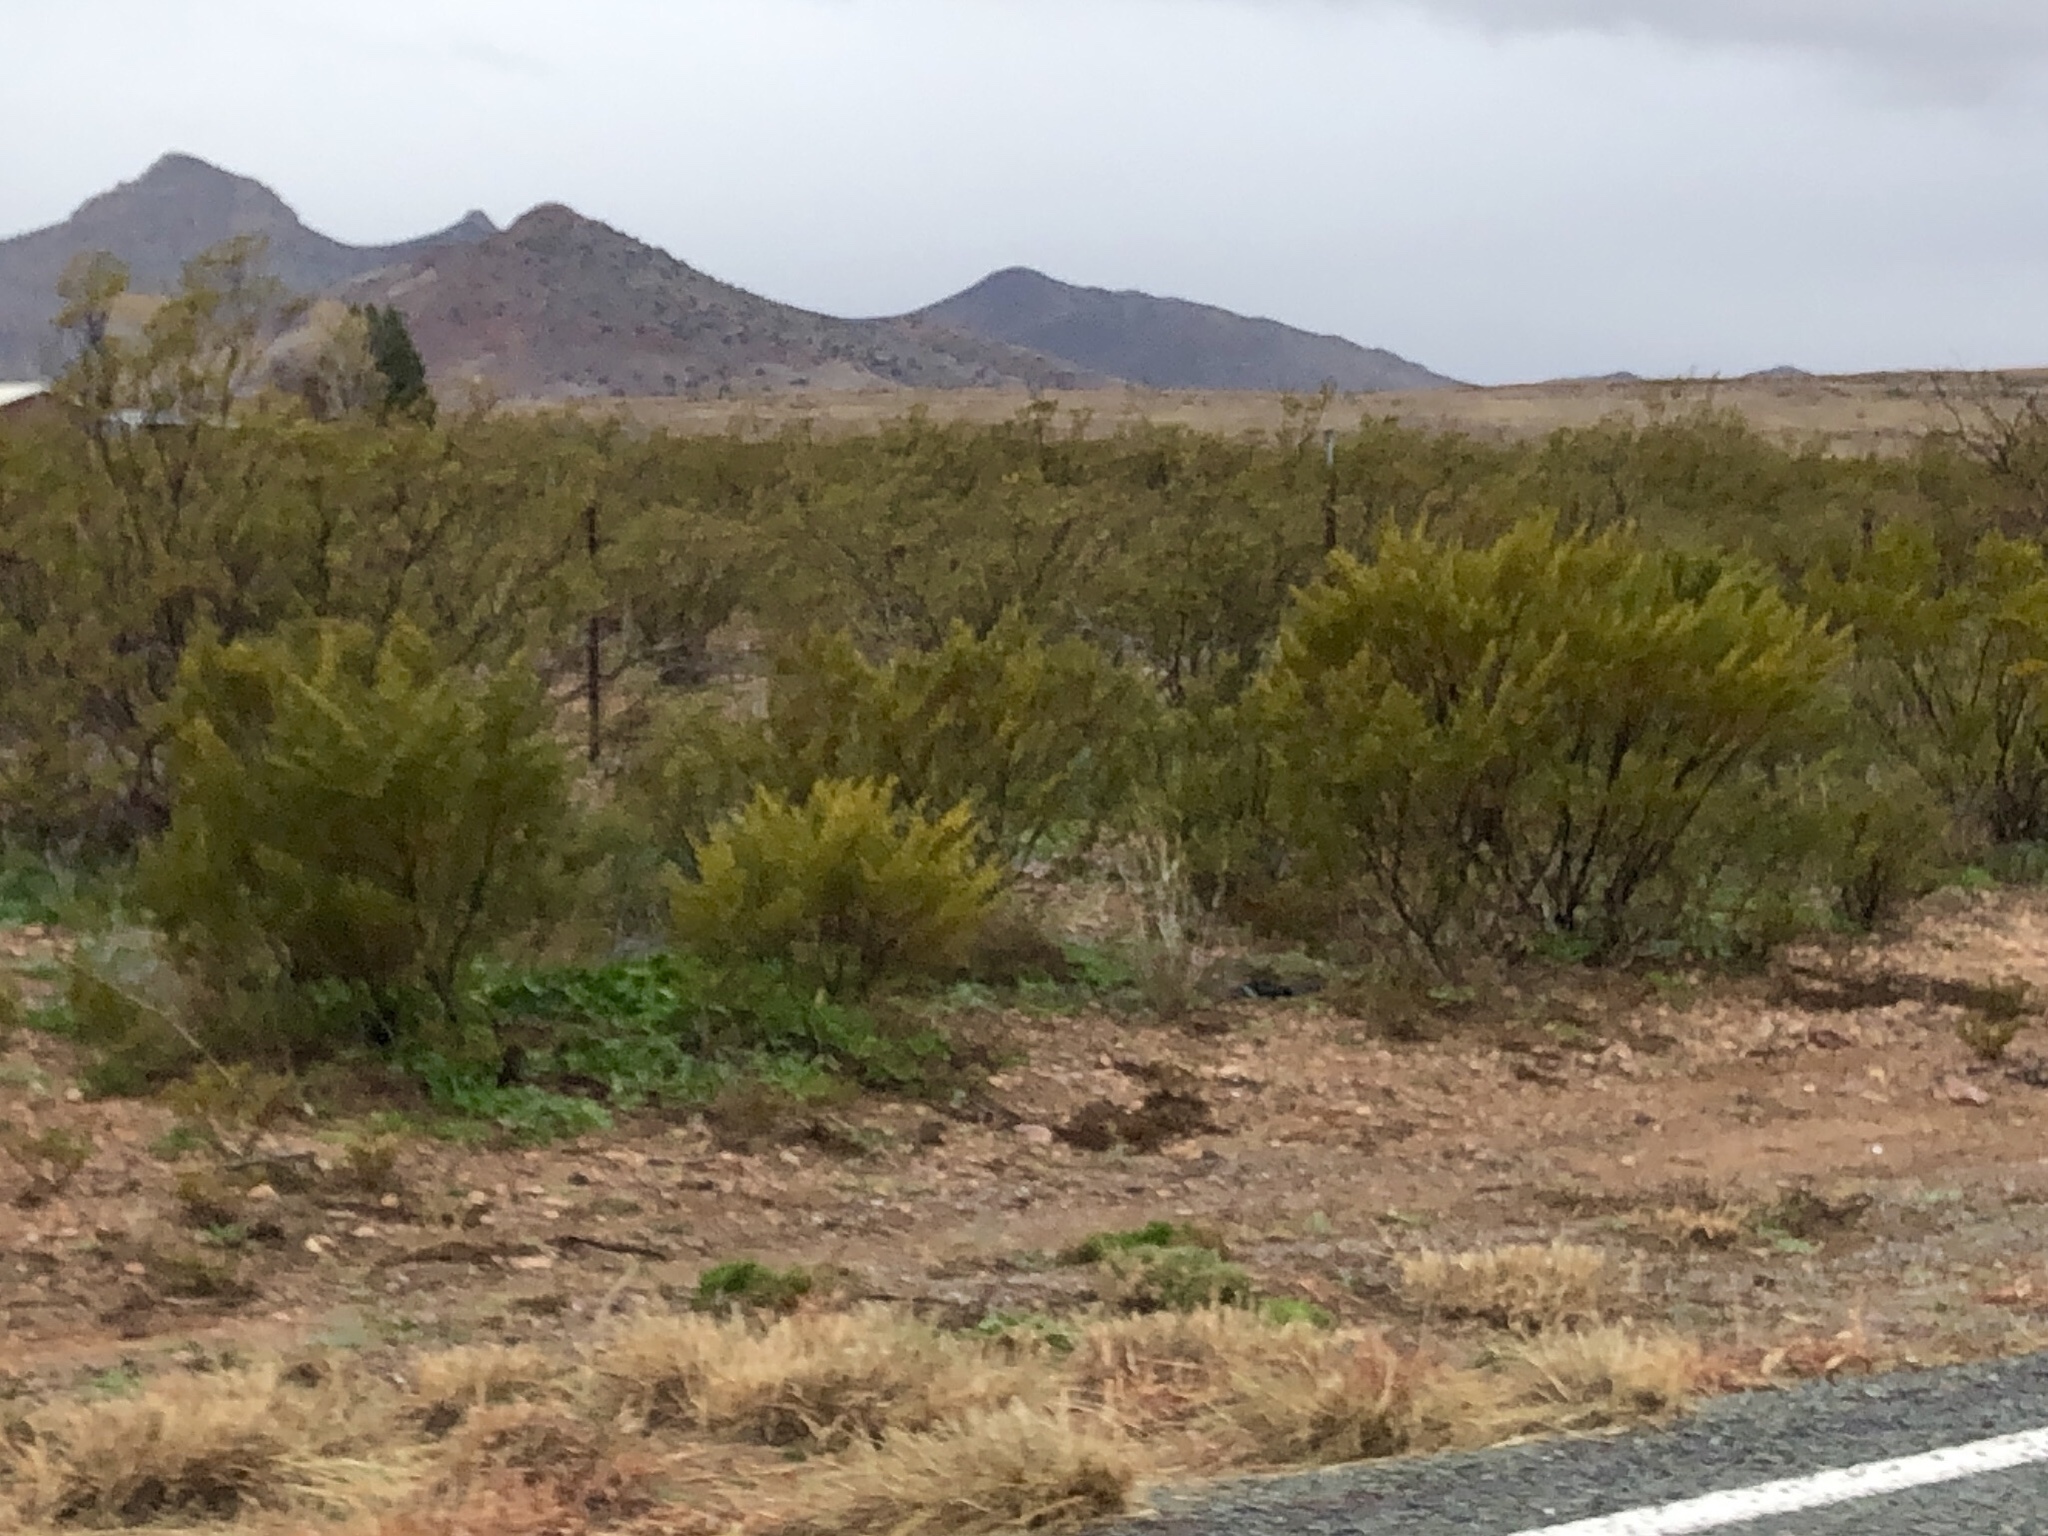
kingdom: Plantae
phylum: Tracheophyta
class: Magnoliopsida
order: Zygophyllales
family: Zygophyllaceae
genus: Larrea
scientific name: Larrea tridentata
